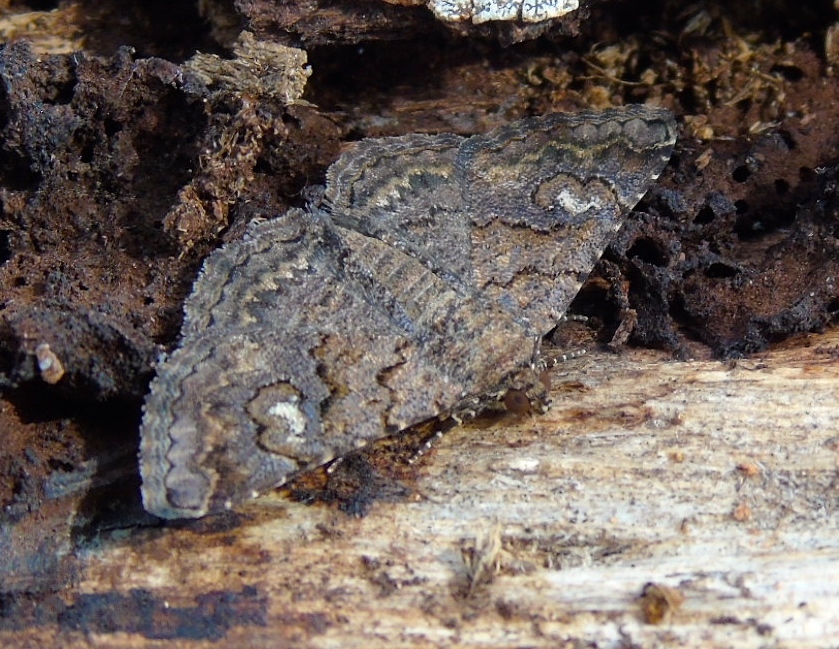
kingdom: Animalia
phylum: Arthropoda
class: Insecta
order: Lepidoptera
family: Erebidae
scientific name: Erebidae
